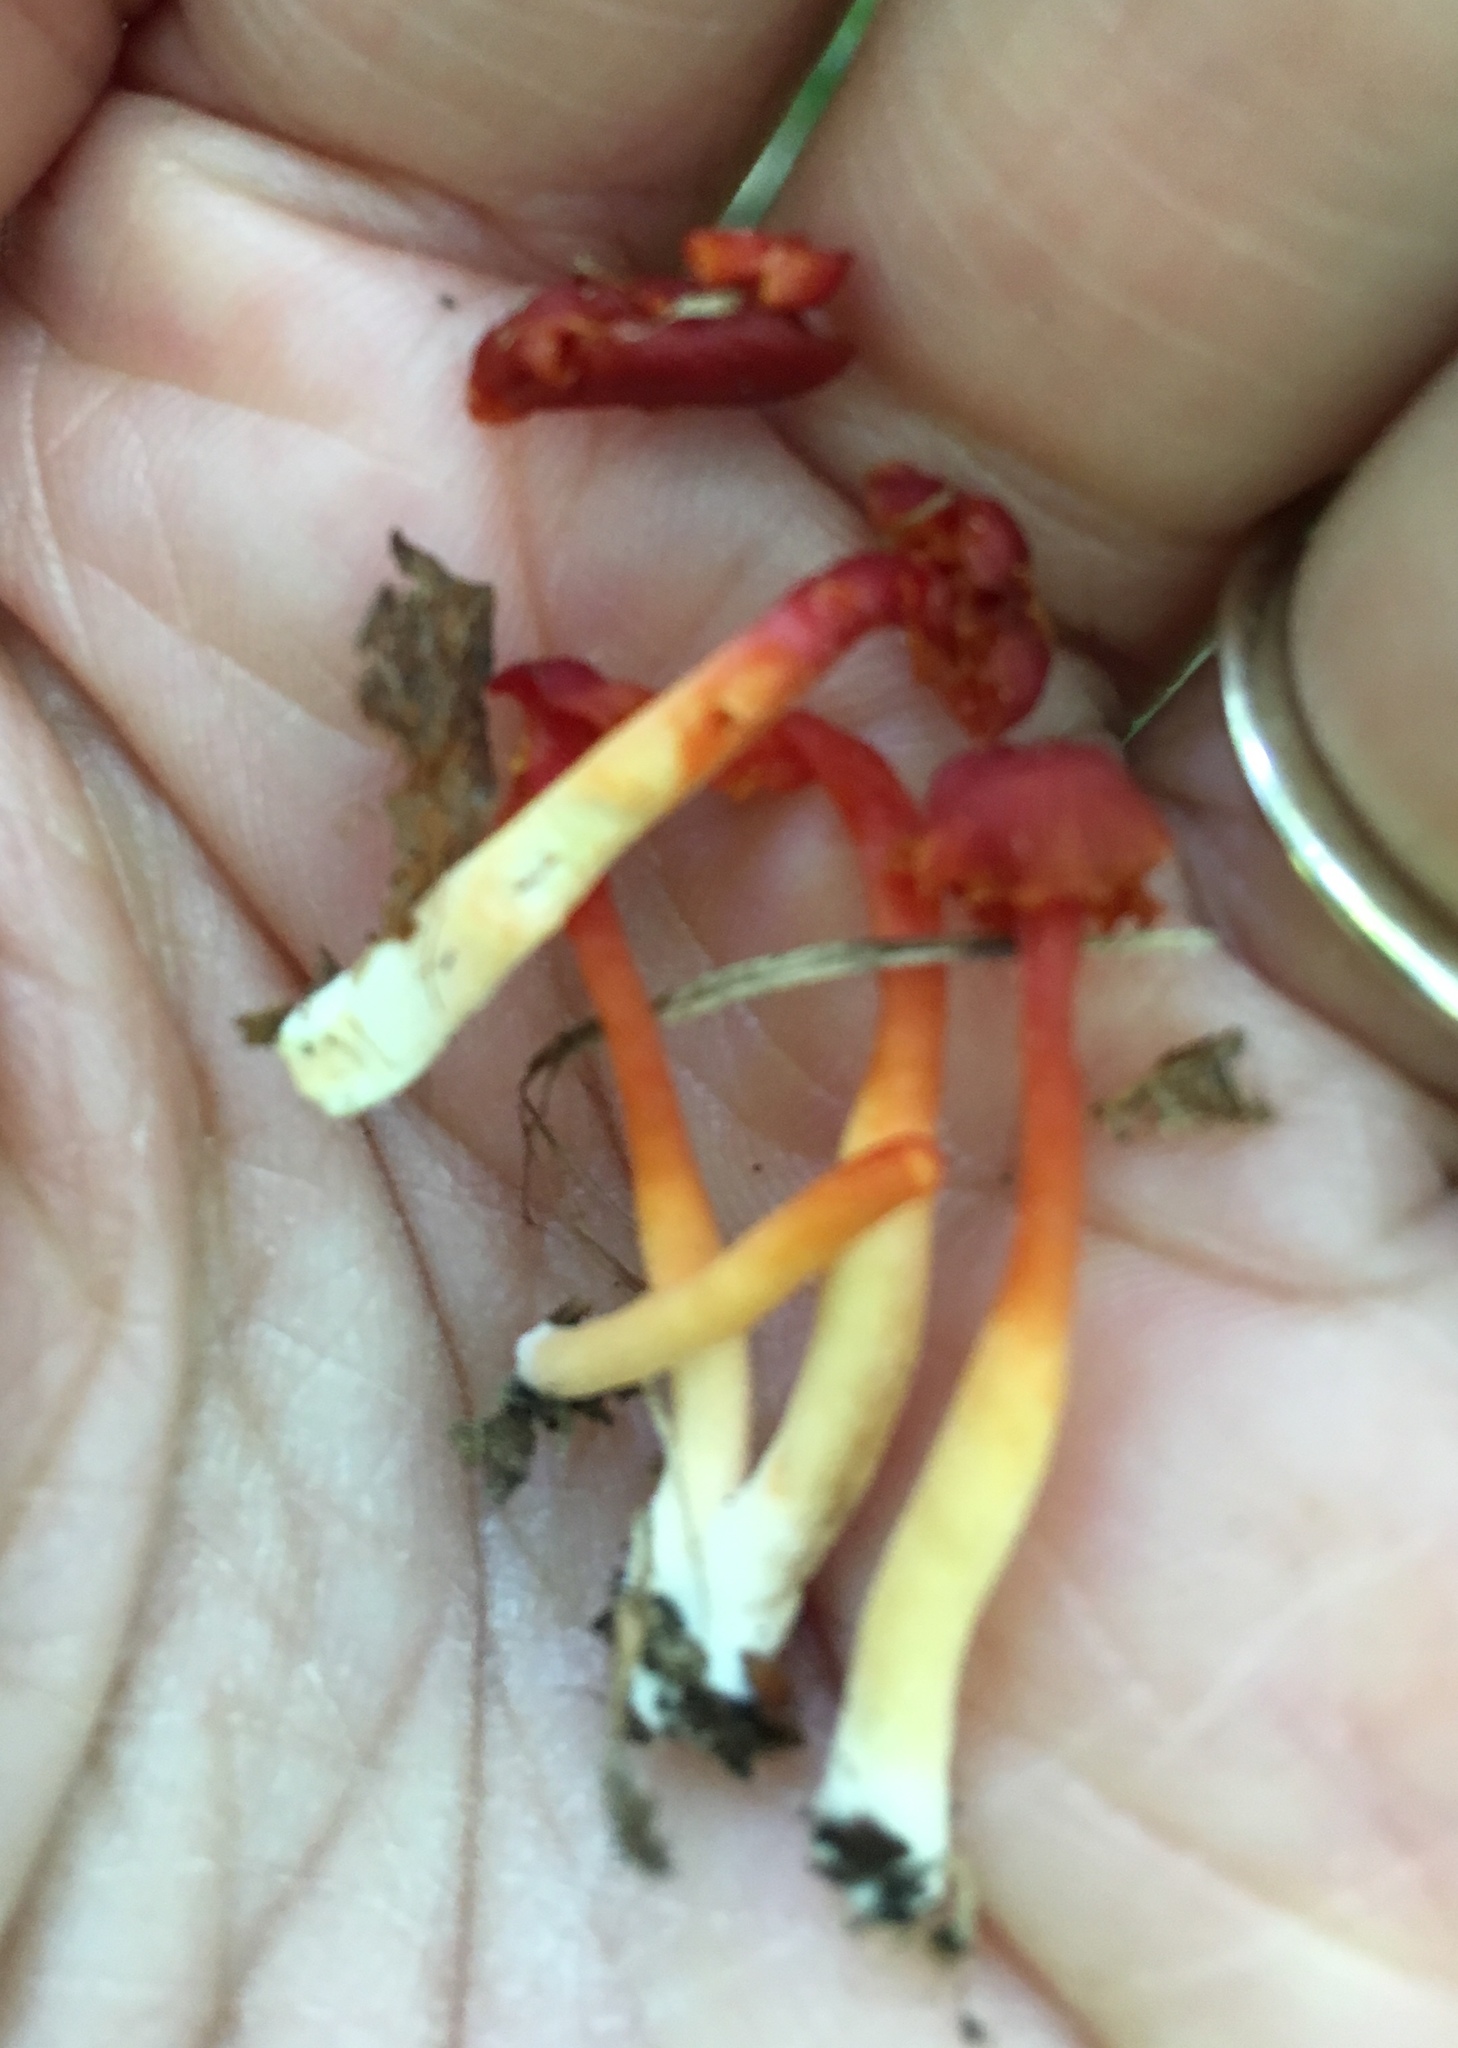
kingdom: Fungi
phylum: Basidiomycota
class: Agaricomycetes
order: Agaricales
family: Hygrophoraceae
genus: Hygrocybe
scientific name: Hygrocybe miniata
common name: Vermilion waxcap
